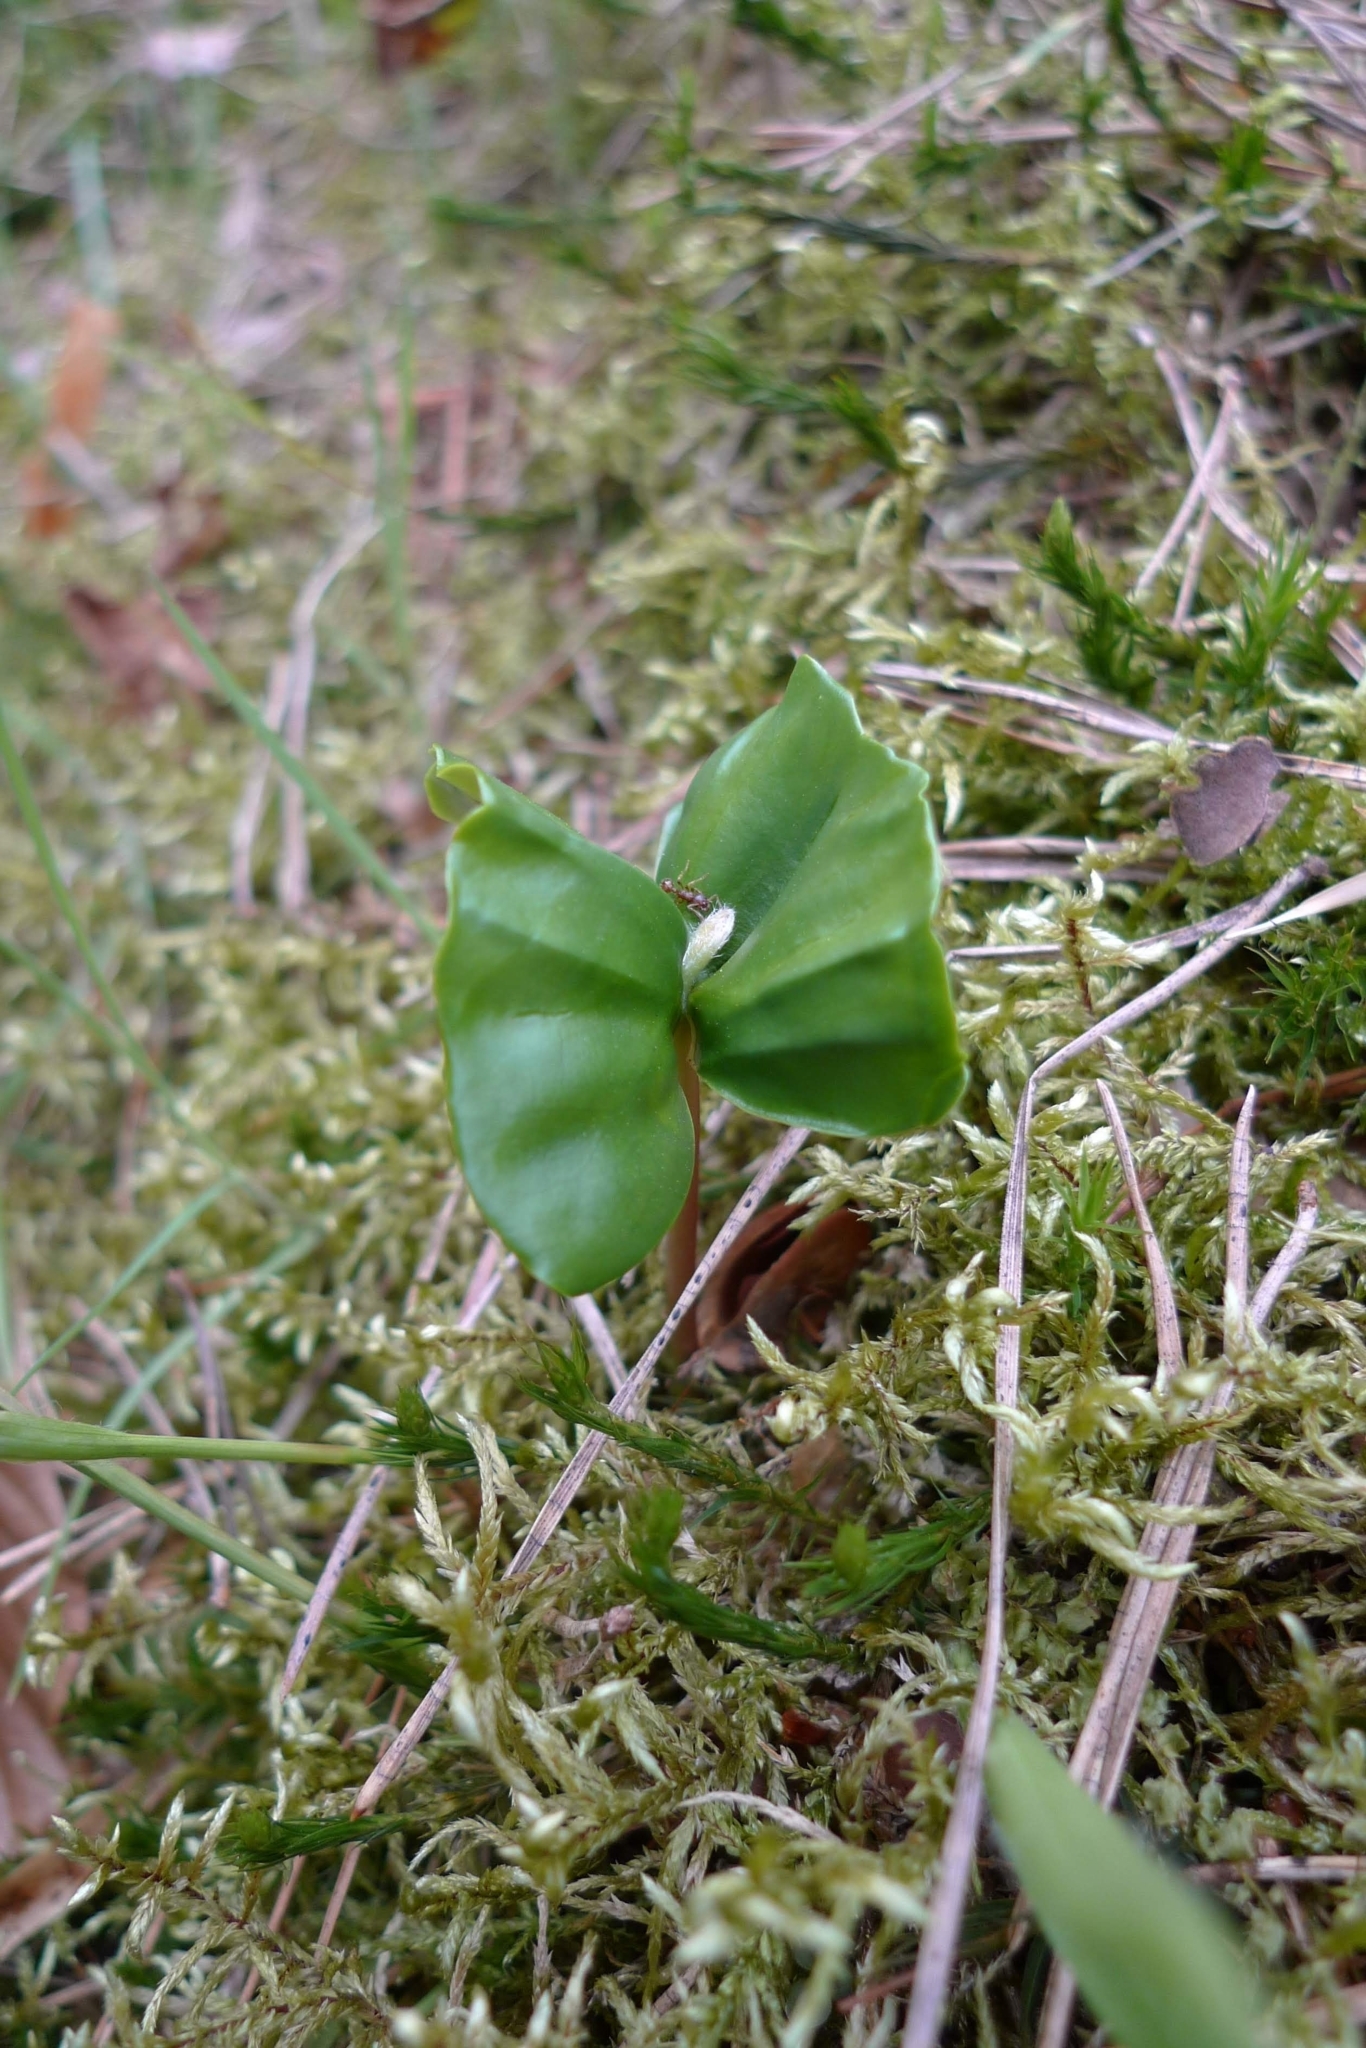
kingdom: Plantae
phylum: Tracheophyta
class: Magnoliopsida
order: Fagales
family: Fagaceae
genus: Fagus
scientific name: Fagus sylvatica
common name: Beech
